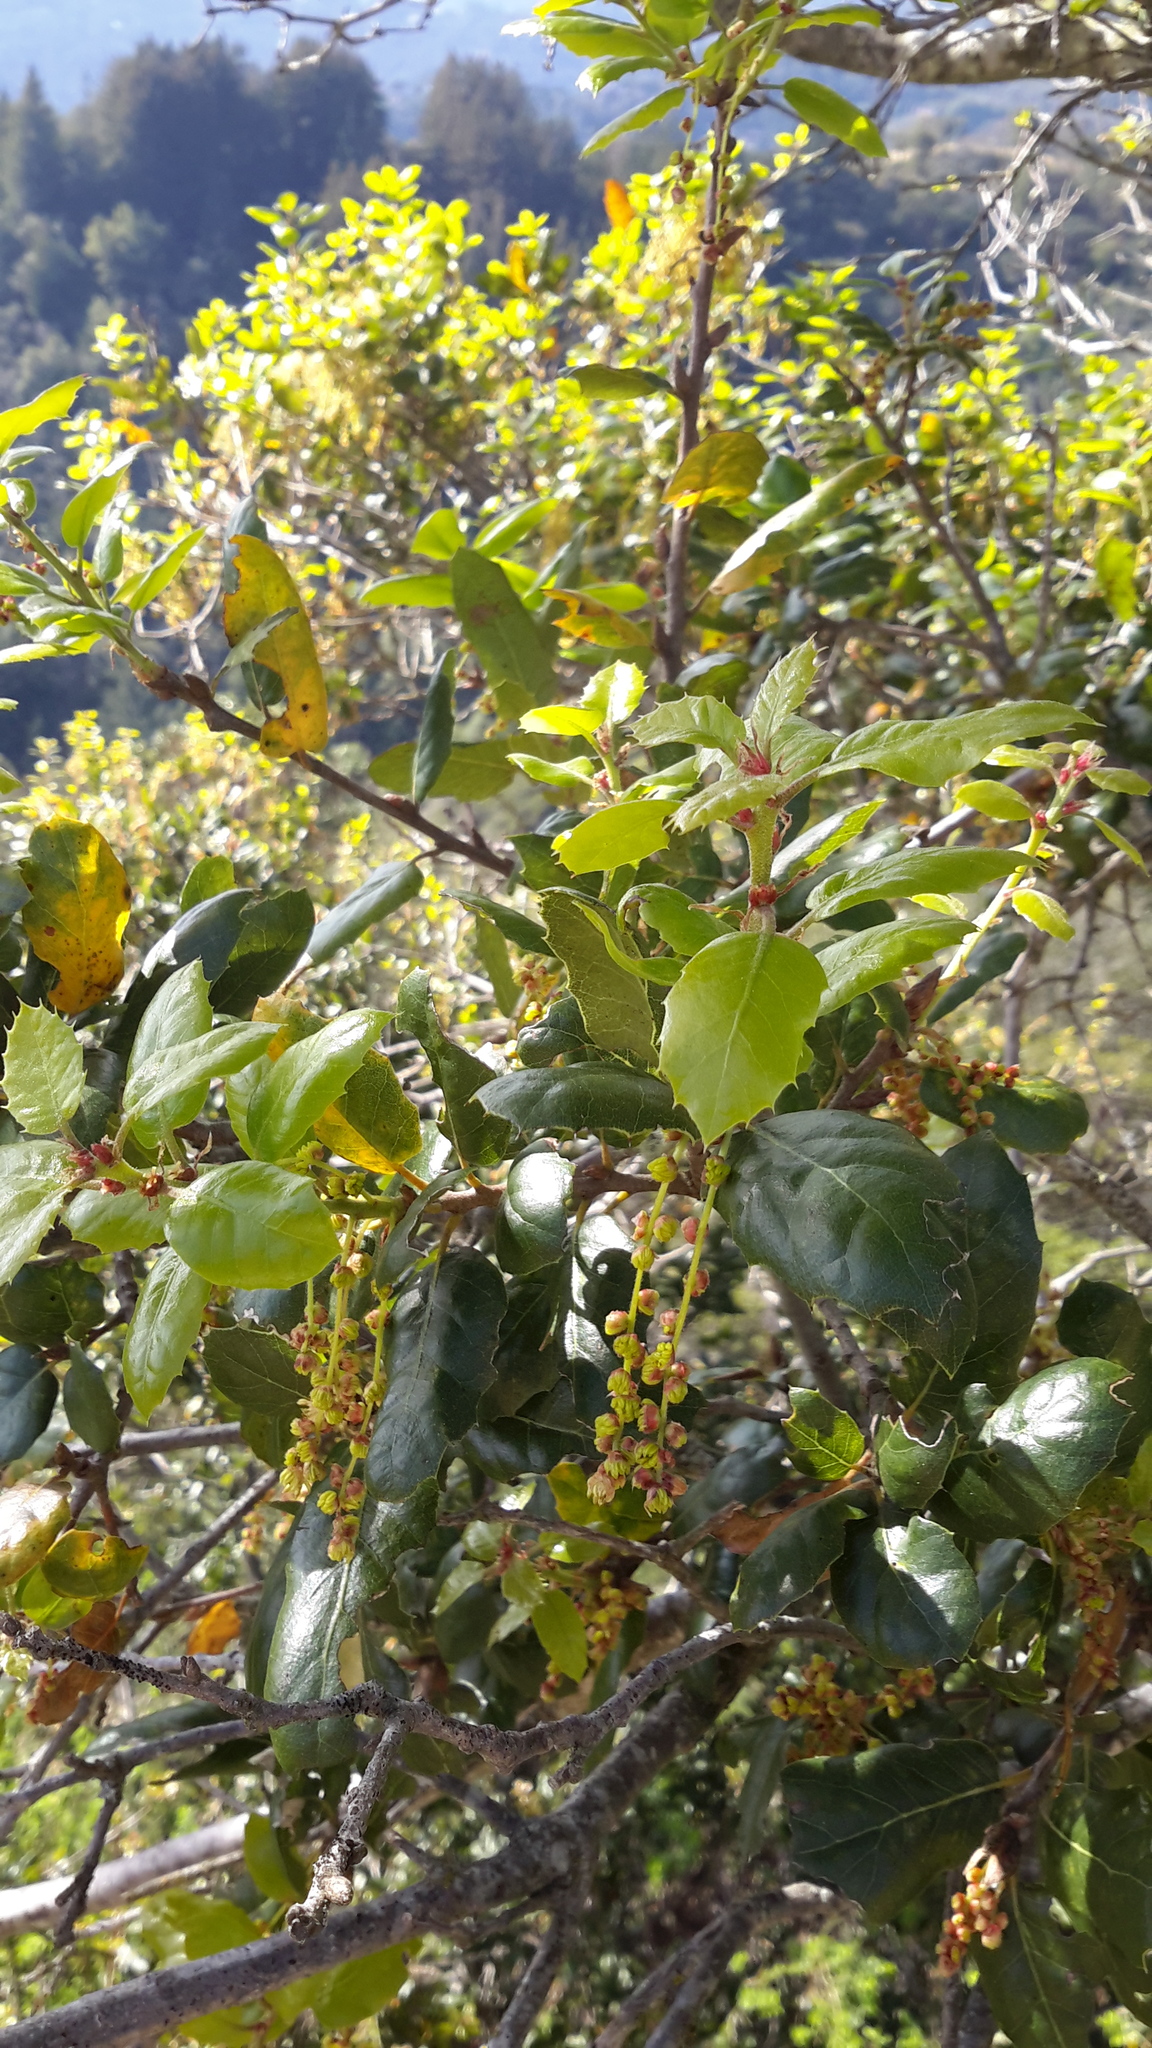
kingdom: Plantae
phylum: Tracheophyta
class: Magnoliopsida
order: Fagales
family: Fagaceae
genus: Quercus
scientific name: Quercus agrifolia
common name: California live oak
